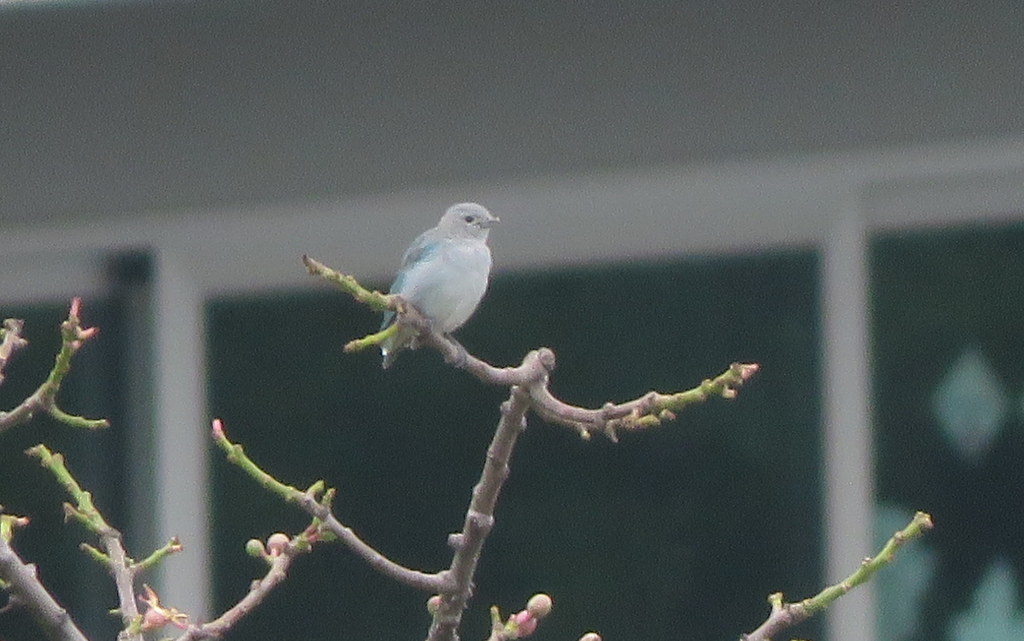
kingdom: Animalia
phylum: Chordata
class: Aves
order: Passeriformes
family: Thraupidae
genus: Thraupis
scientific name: Thraupis sayaca
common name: Sayaca tanager
